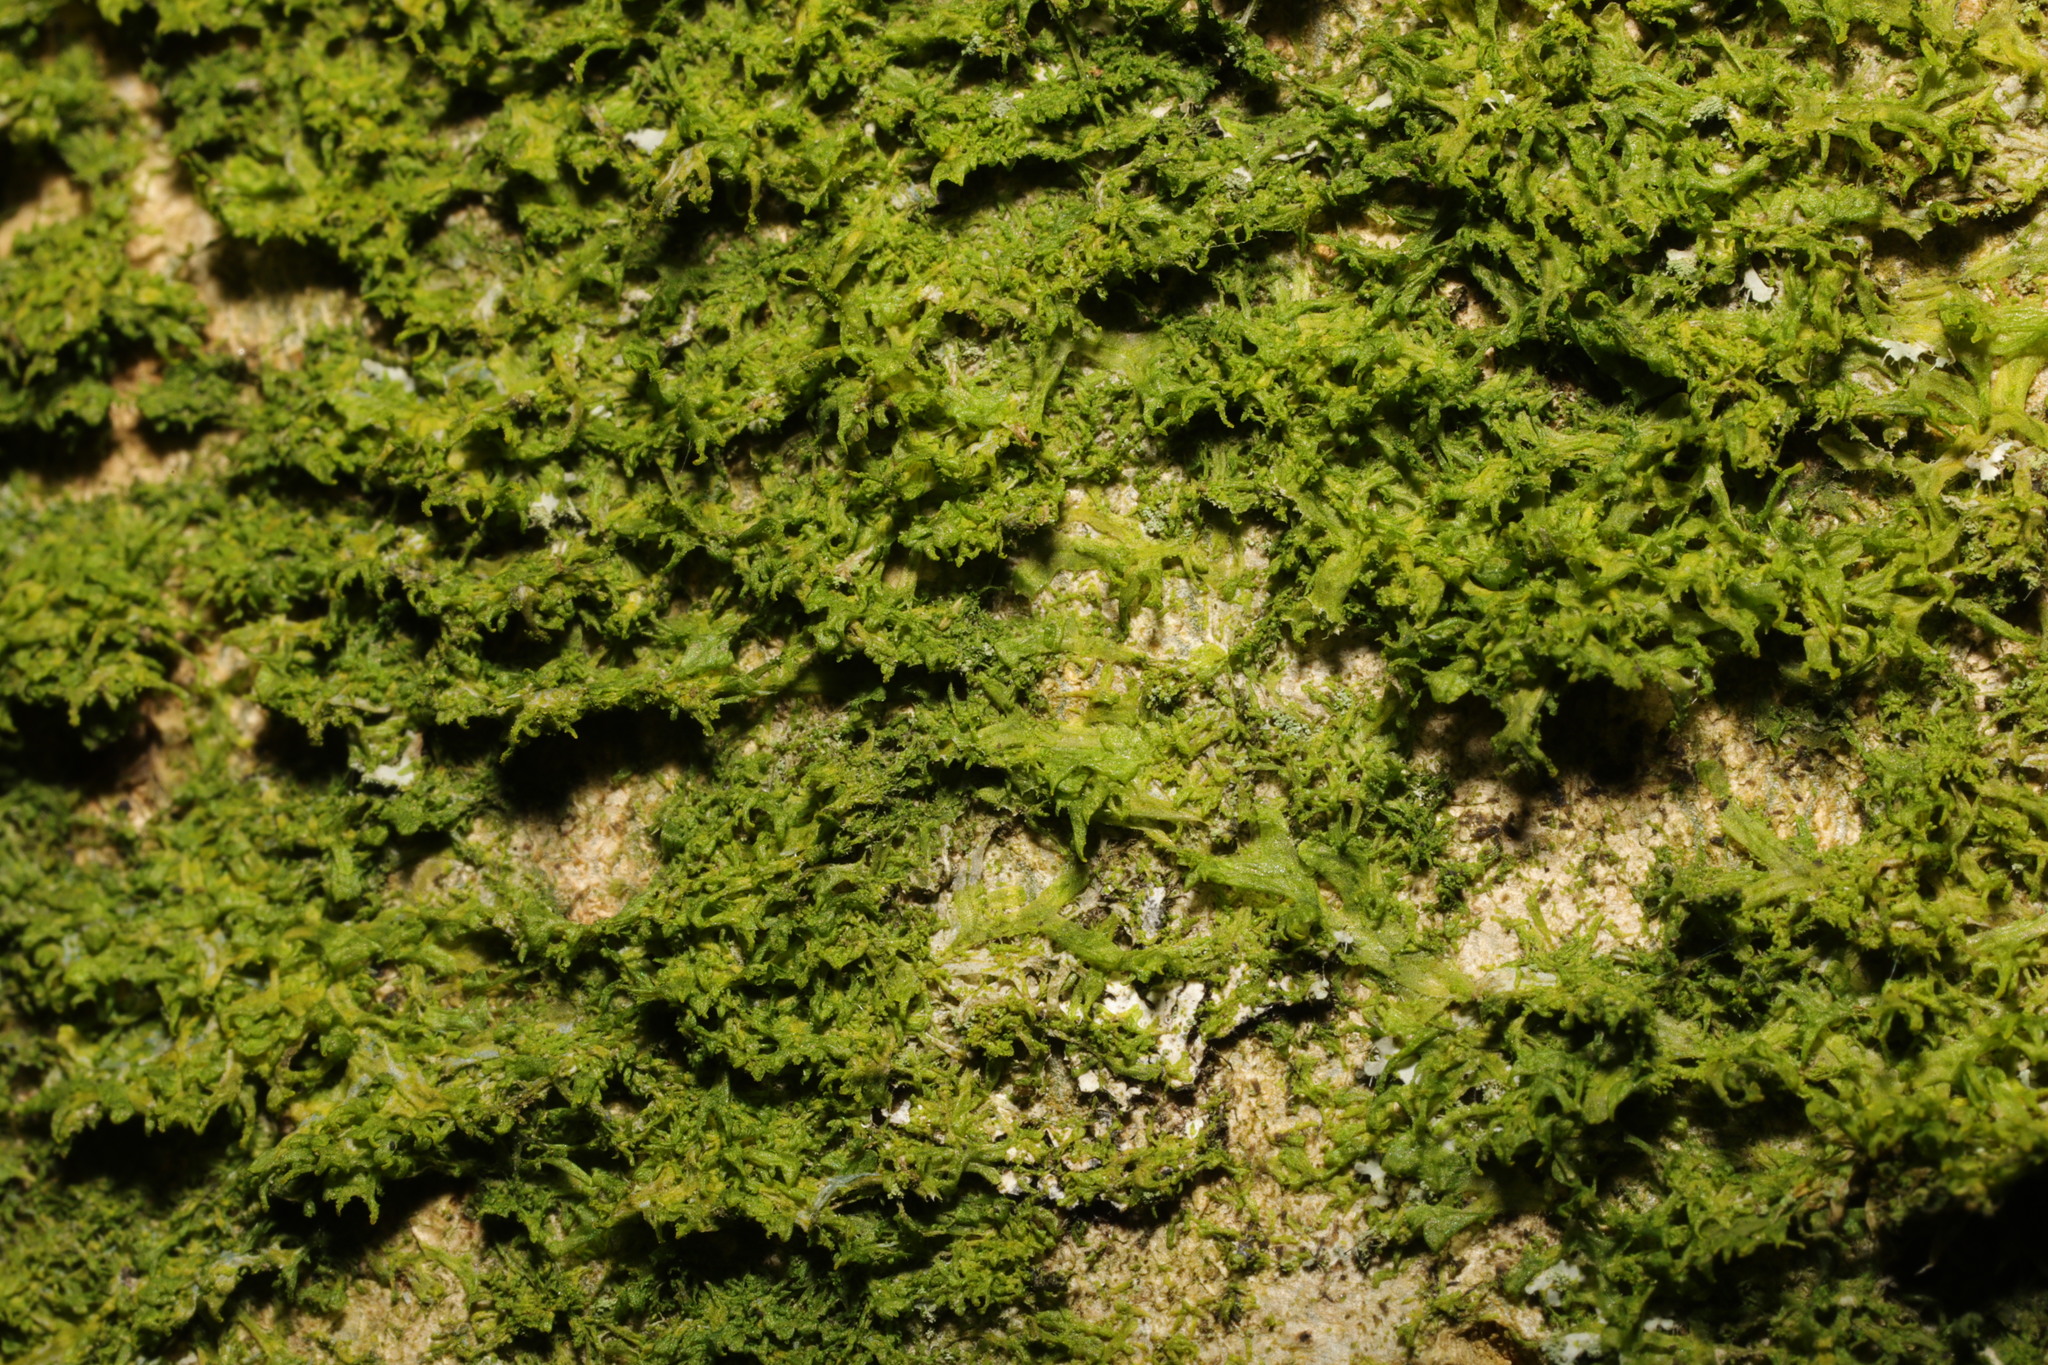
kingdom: Plantae
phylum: Marchantiophyta
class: Jungermanniopsida
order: Metzgeriales
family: Metzgeriaceae
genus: Metzgeria
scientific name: Metzgeria furcata
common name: Forked veilwort
